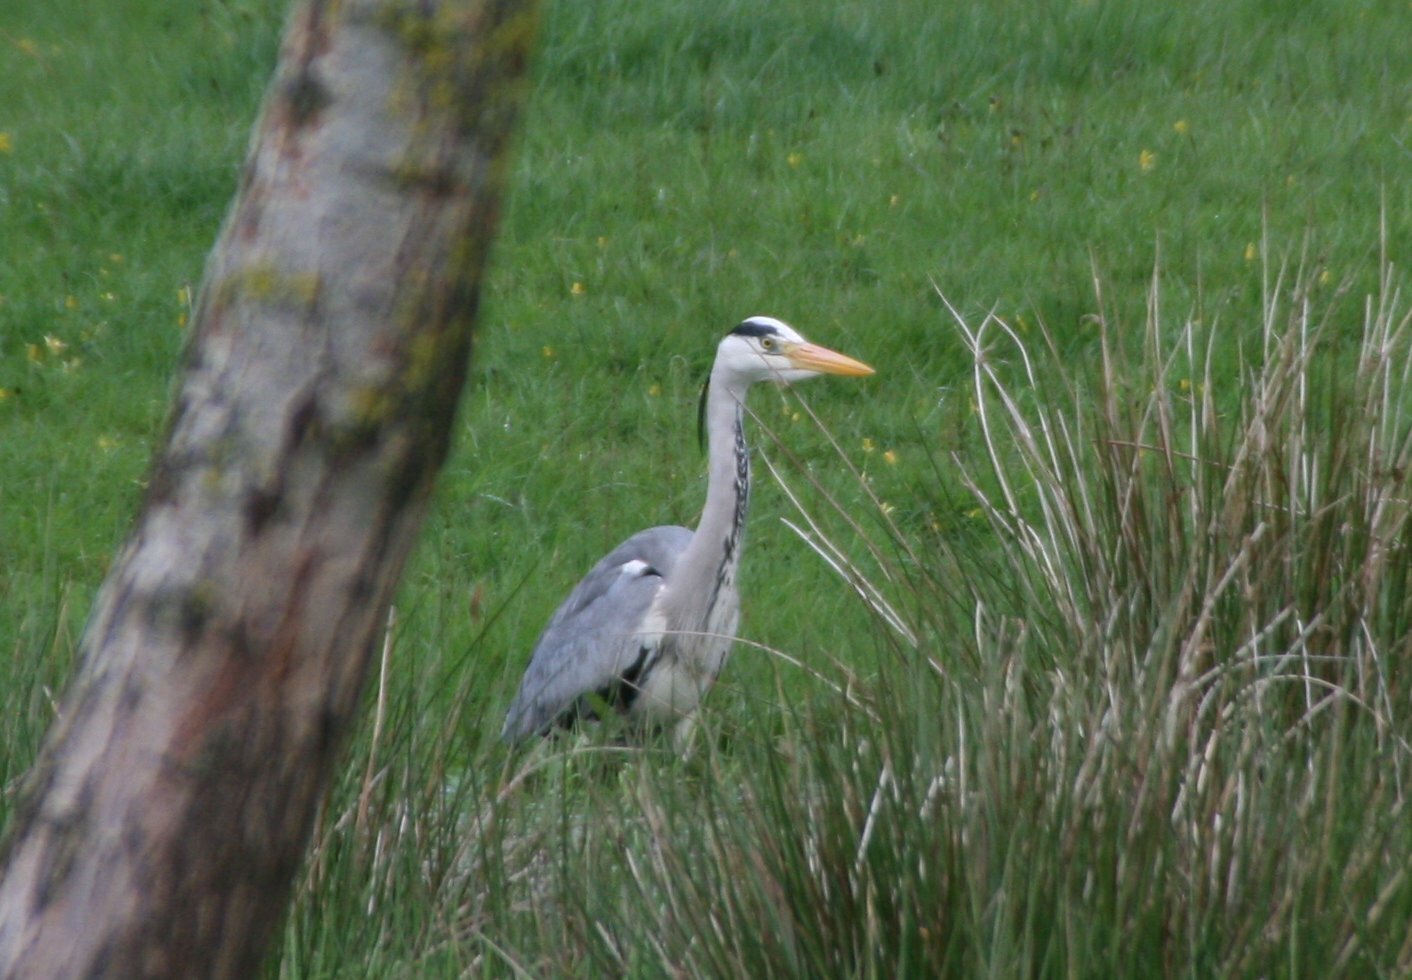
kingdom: Animalia
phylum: Chordata
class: Aves
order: Pelecaniformes
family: Ardeidae
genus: Ardea
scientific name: Ardea cinerea
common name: Grey heron
